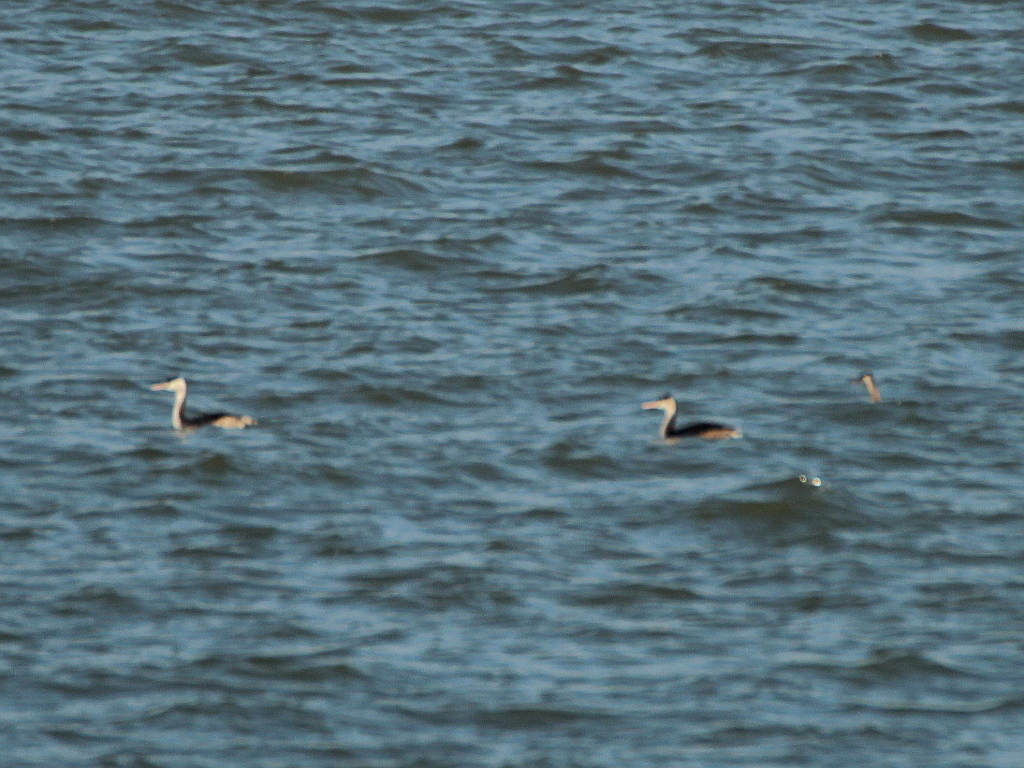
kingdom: Animalia
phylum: Chordata
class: Aves
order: Podicipediformes
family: Podicipedidae
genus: Podiceps
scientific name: Podiceps cristatus
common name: Great crested grebe
